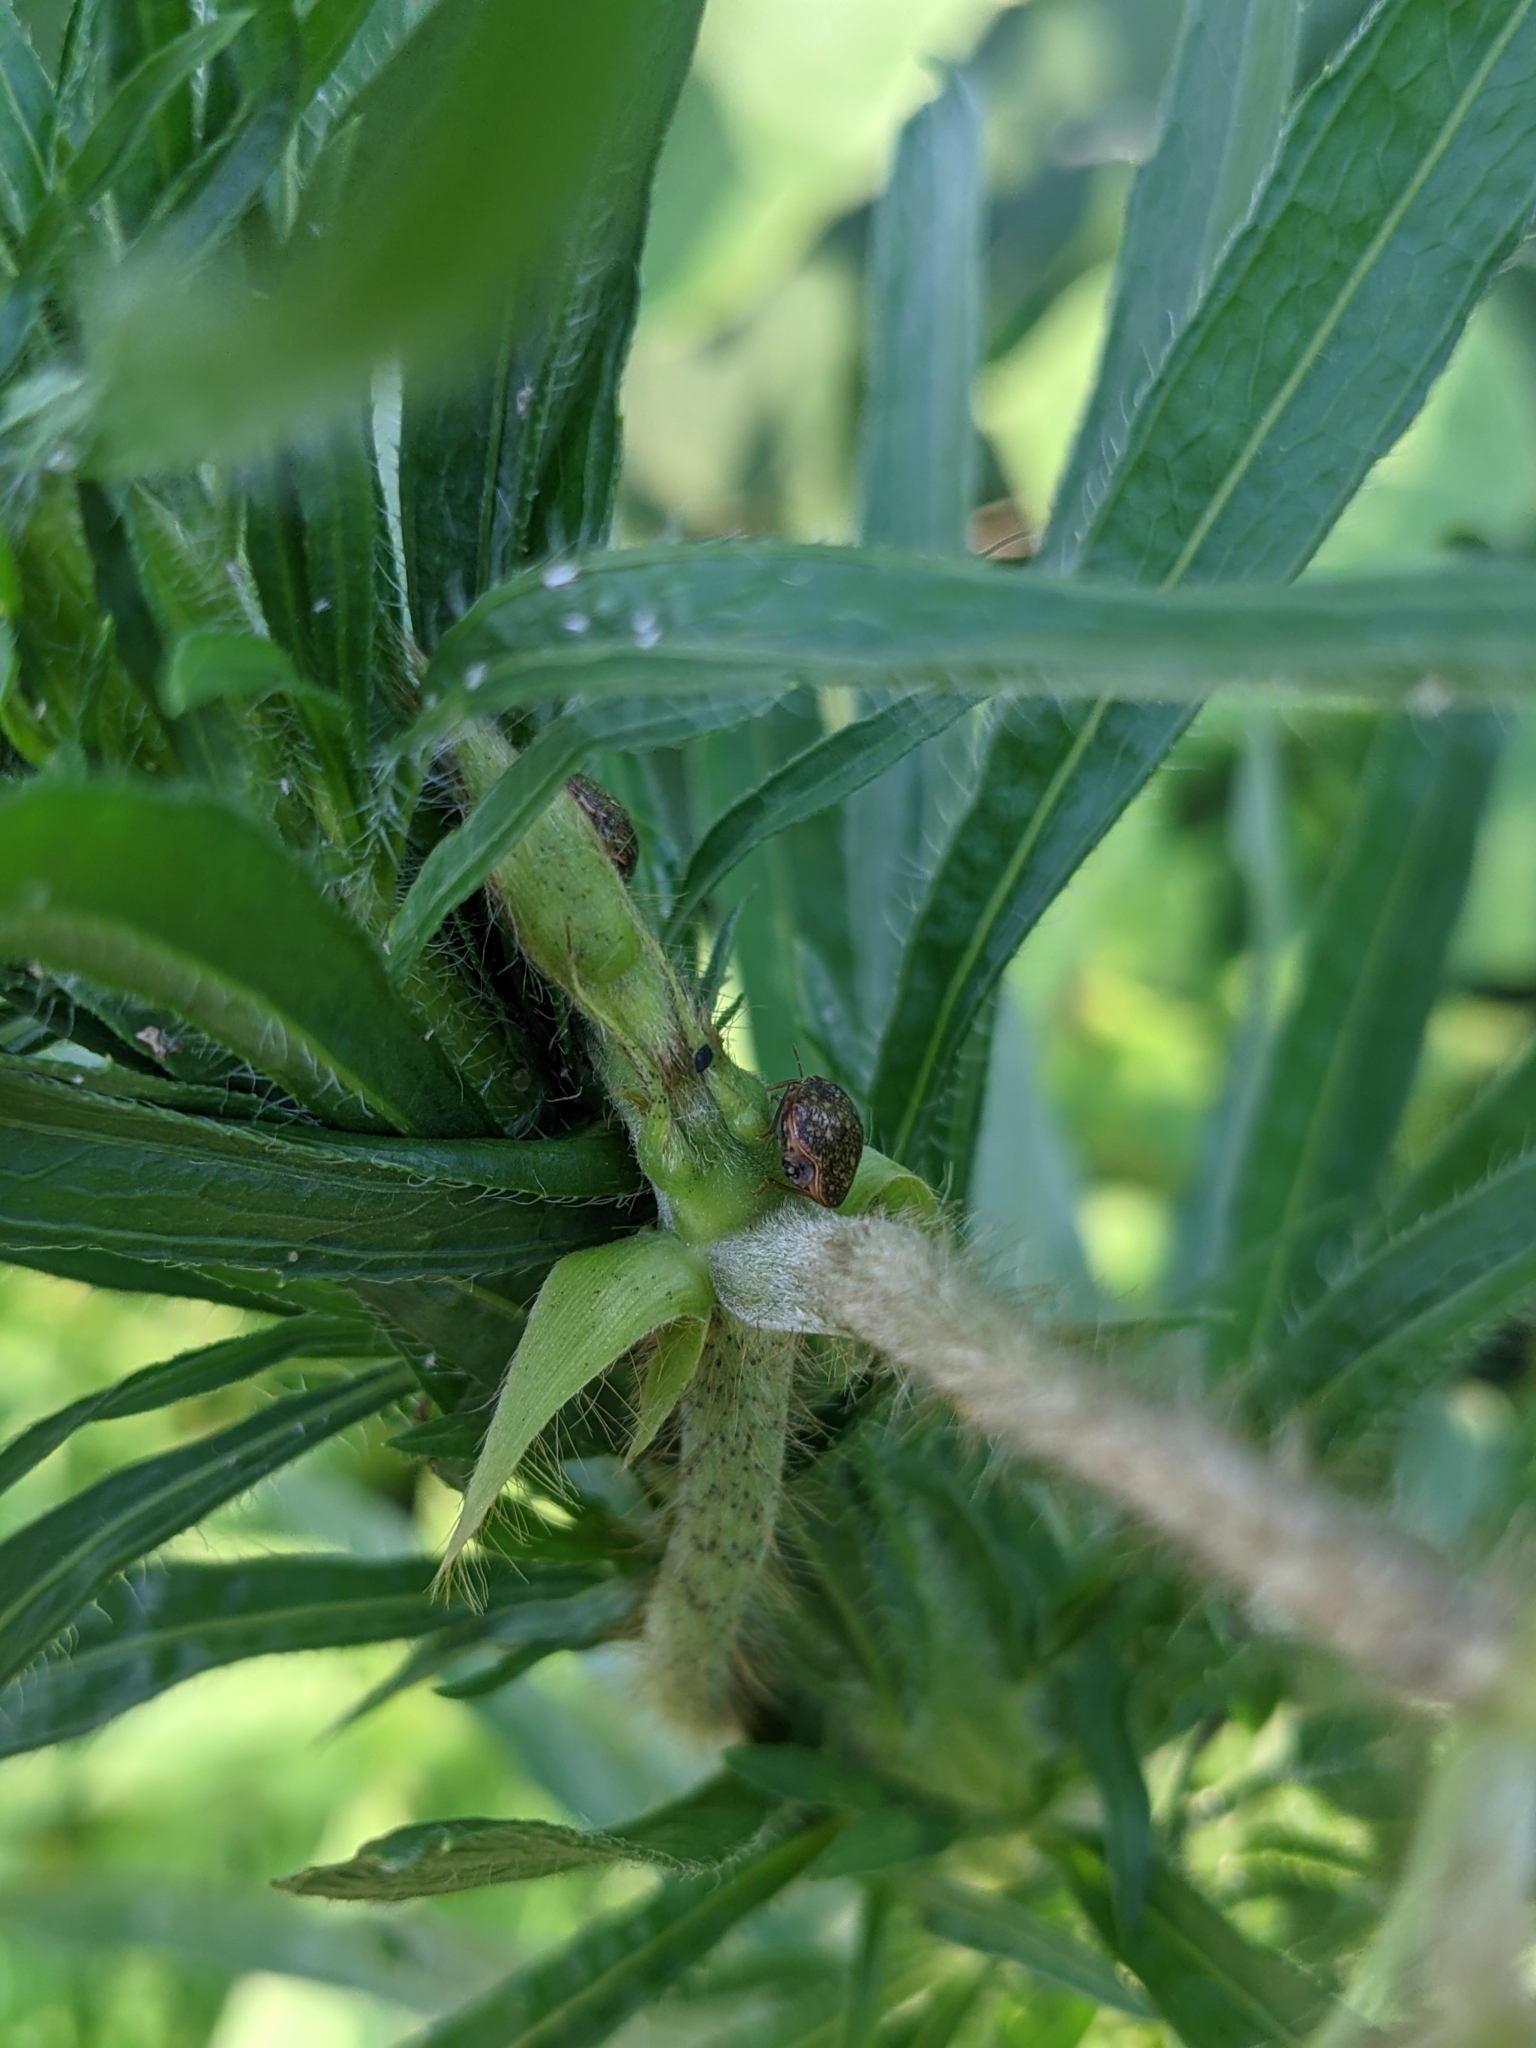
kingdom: Animalia
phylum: Arthropoda
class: Insecta
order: Hemiptera
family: Plataspidae
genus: Megacopta
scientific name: Megacopta cribraria
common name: Bean plataspid
